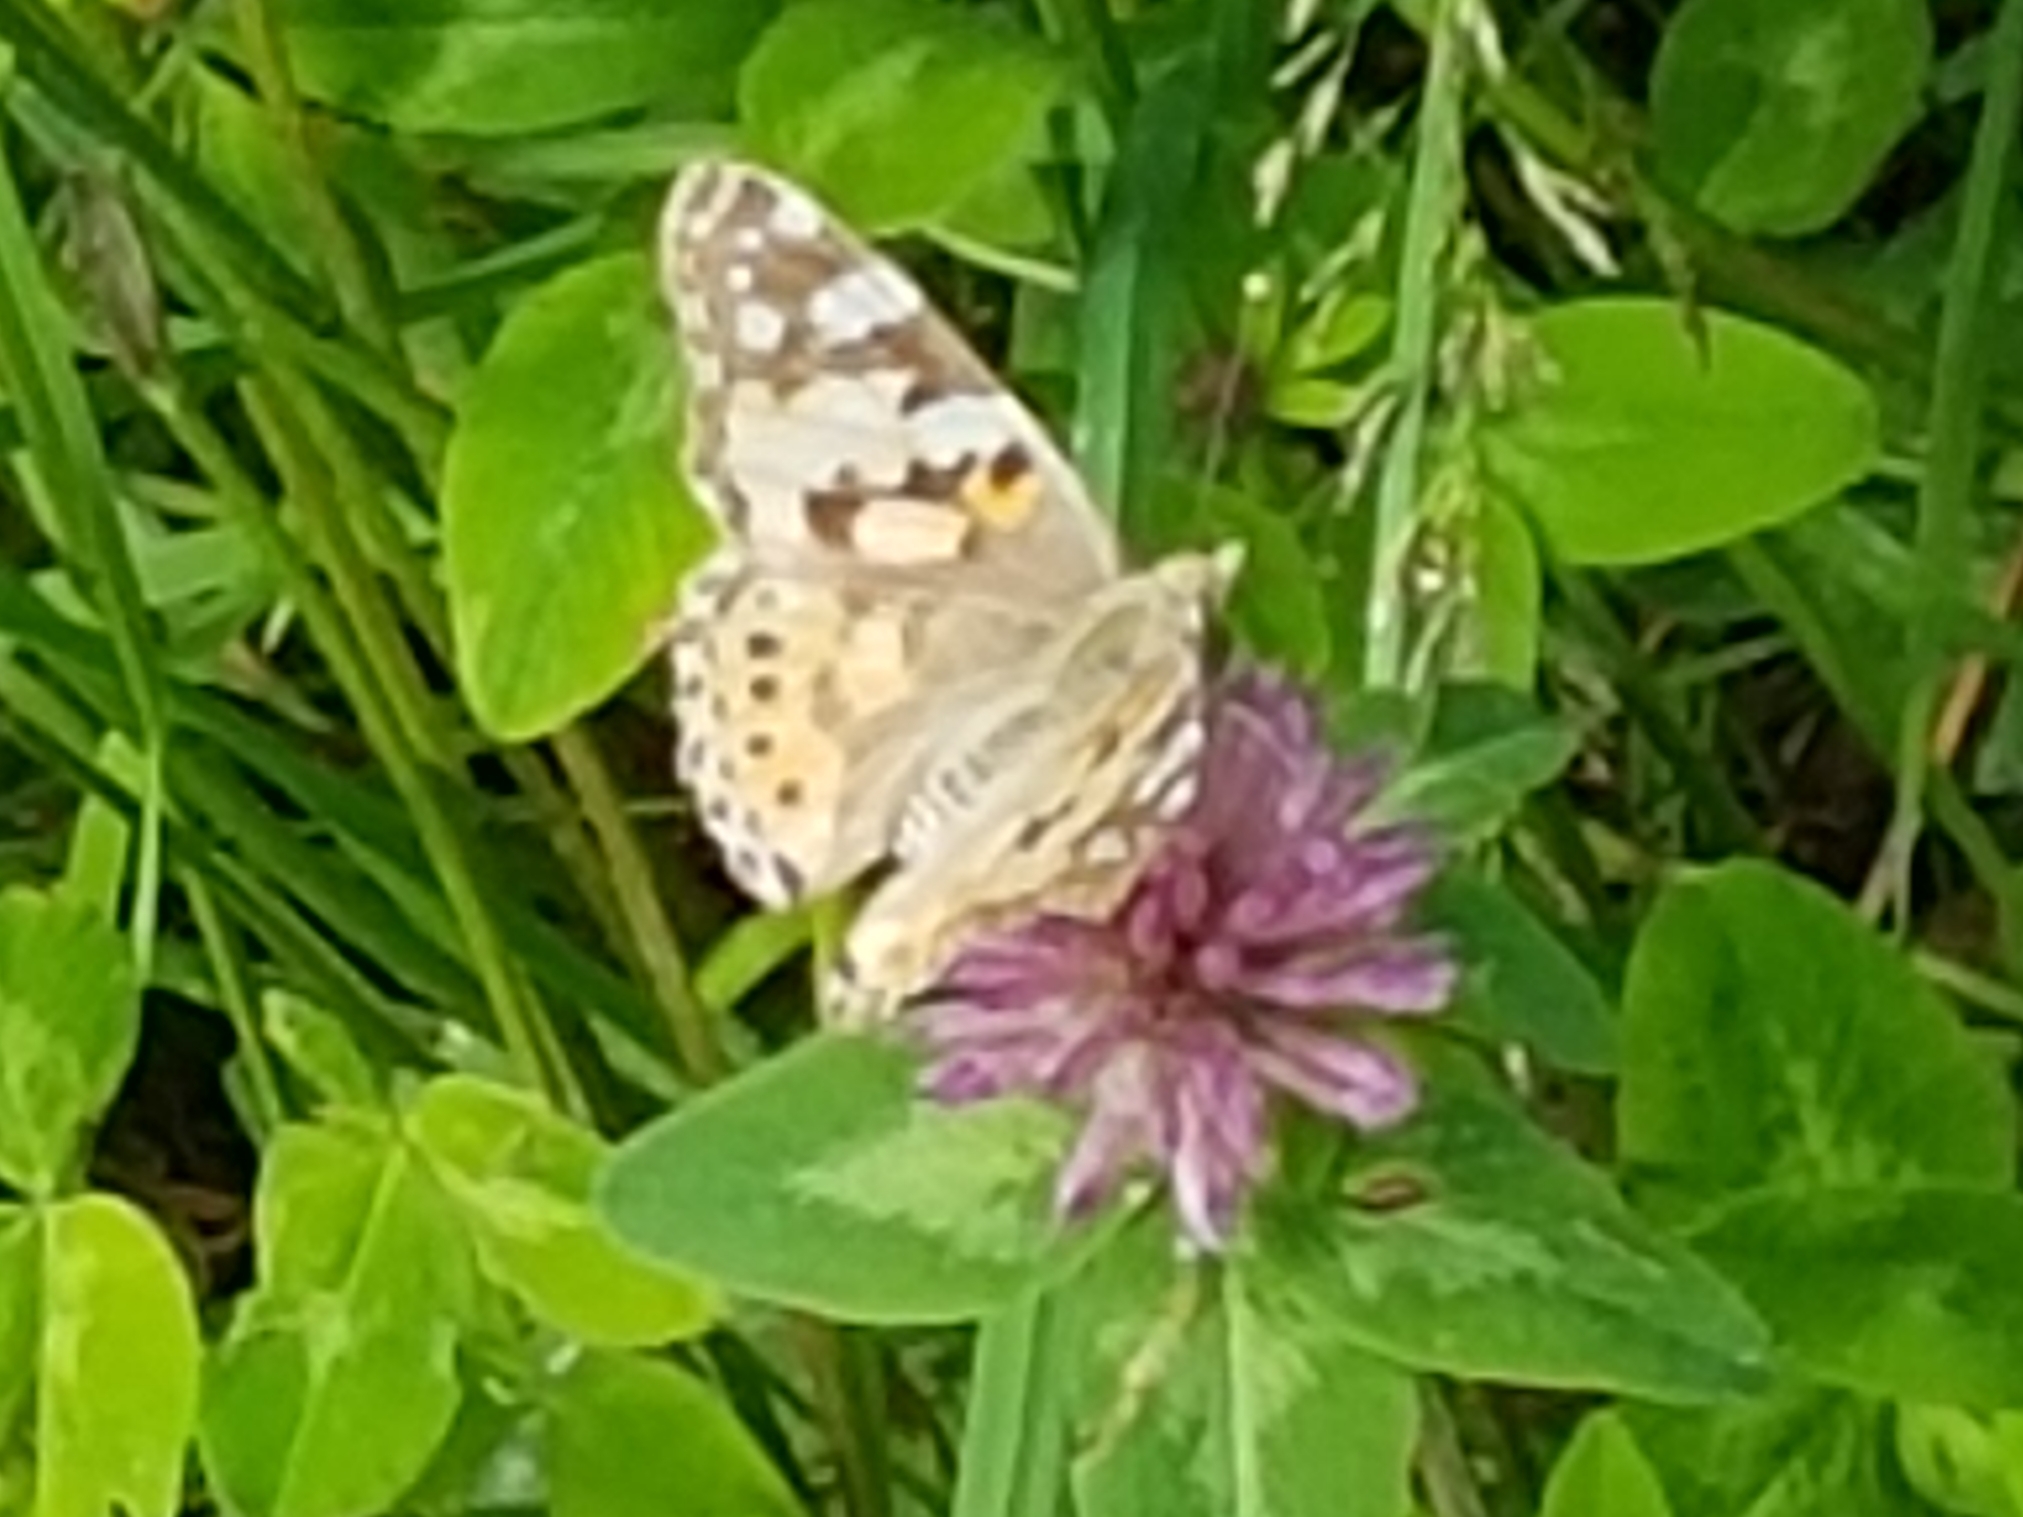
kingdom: Animalia
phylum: Arthropoda
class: Insecta
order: Lepidoptera
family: Nymphalidae
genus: Vanessa
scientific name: Vanessa cardui
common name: Painted lady
